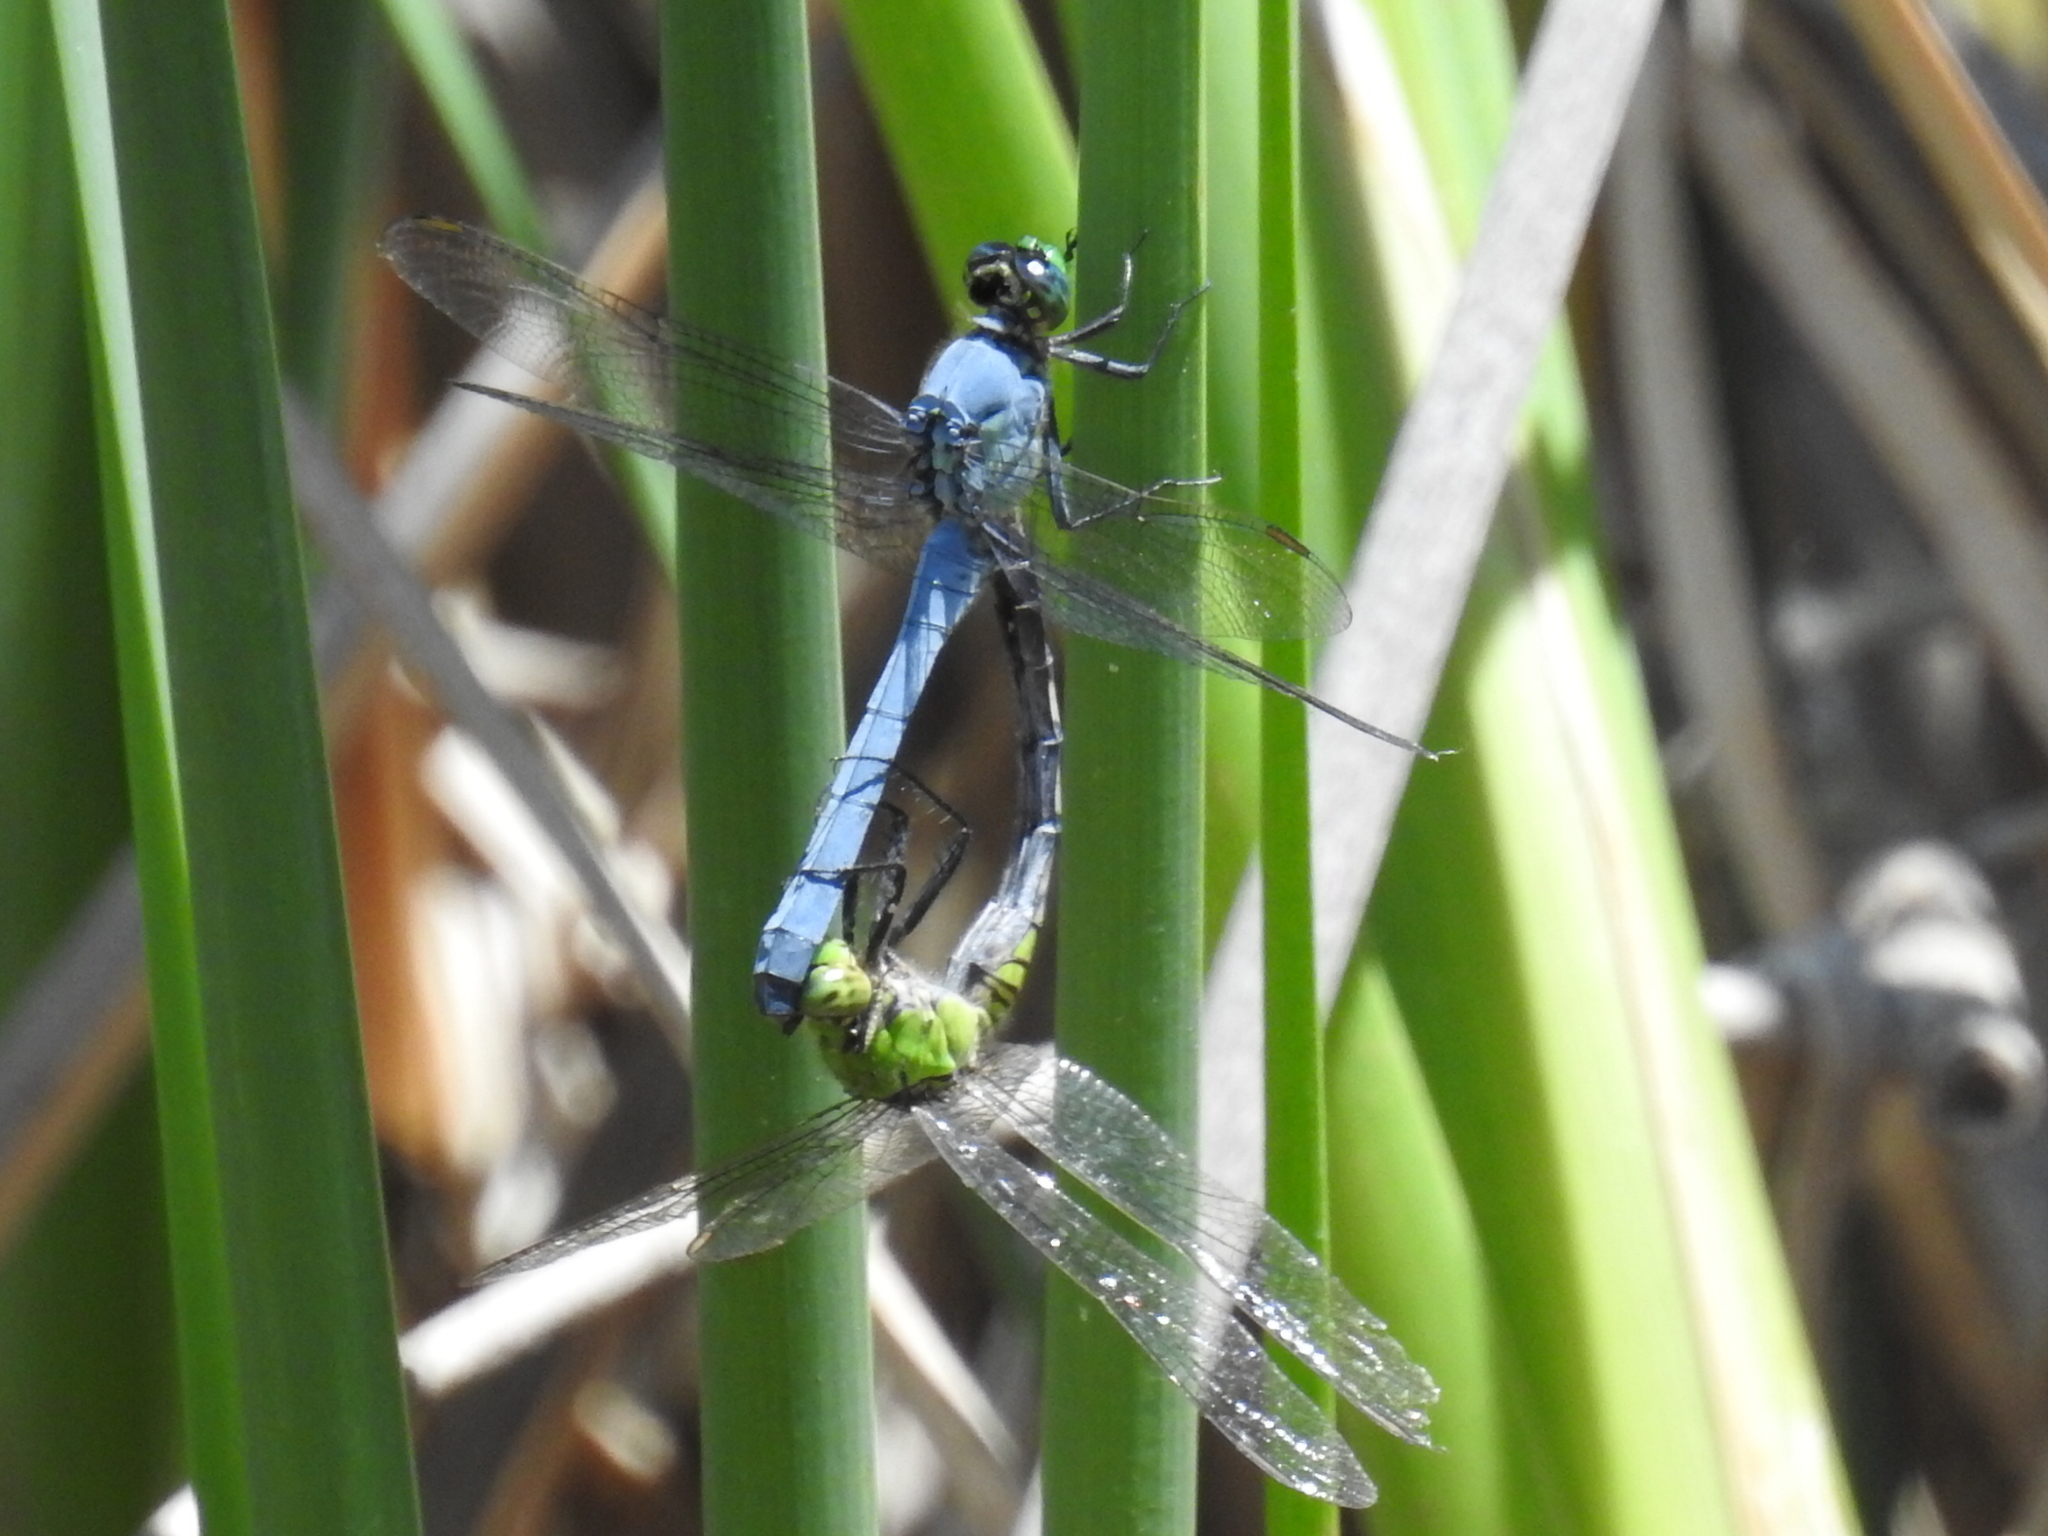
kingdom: Animalia
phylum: Arthropoda
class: Insecta
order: Odonata
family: Libellulidae
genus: Erythemis
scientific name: Erythemis simplicicollis
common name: Eastern pondhawk
